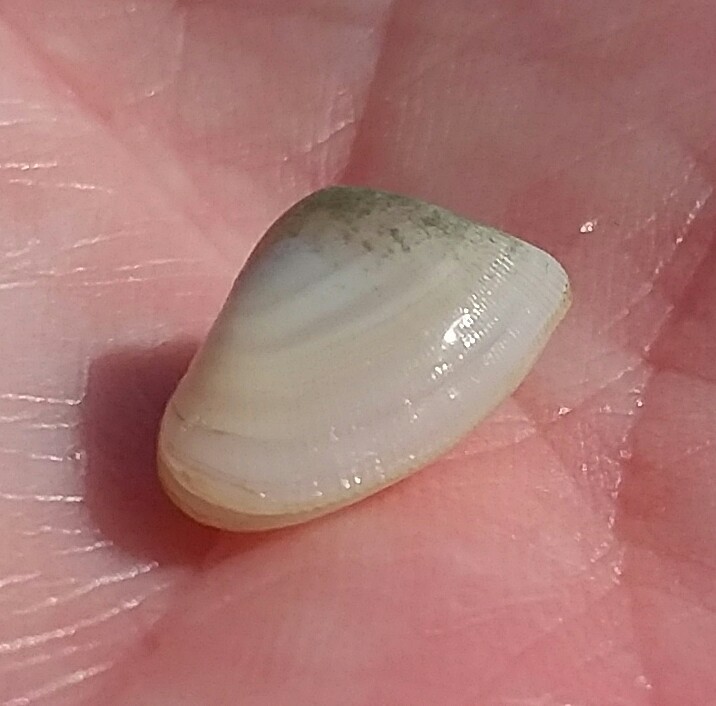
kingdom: Animalia
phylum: Mollusca
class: Bivalvia
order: Cardiida
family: Donacidae
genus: Donax
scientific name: Donax variabilis
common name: Butterfly shell
